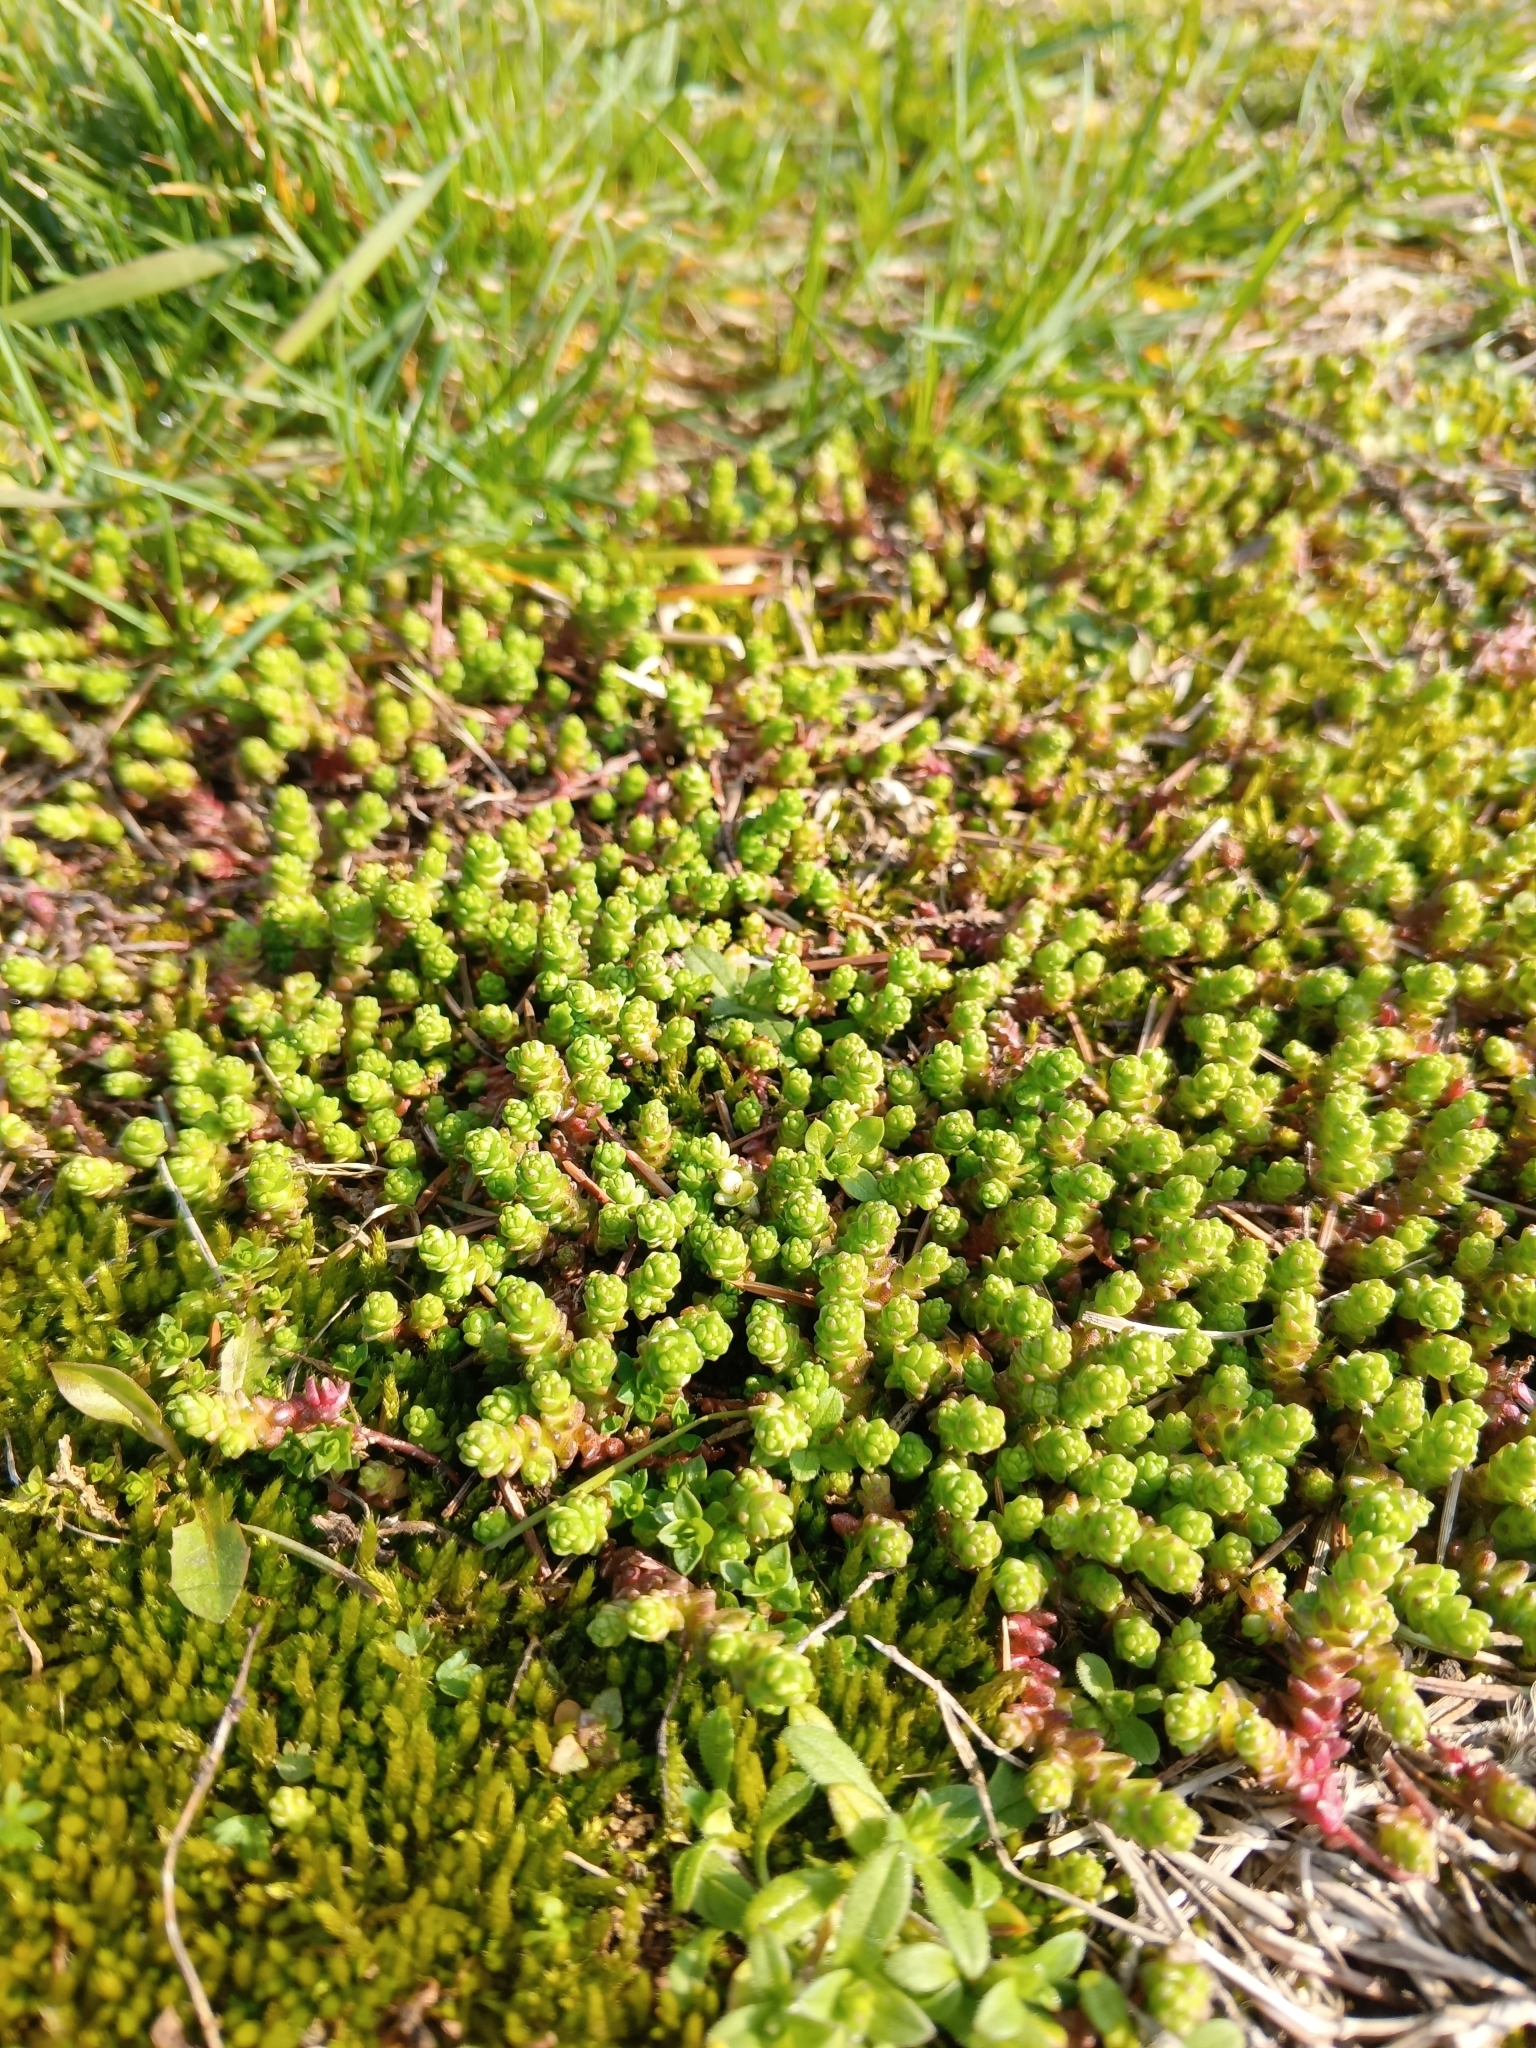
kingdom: Plantae
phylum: Tracheophyta
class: Magnoliopsida
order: Saxifragales
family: Crassulaceae
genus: Sedum
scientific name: Sedum acre
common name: Biting stonecrop
